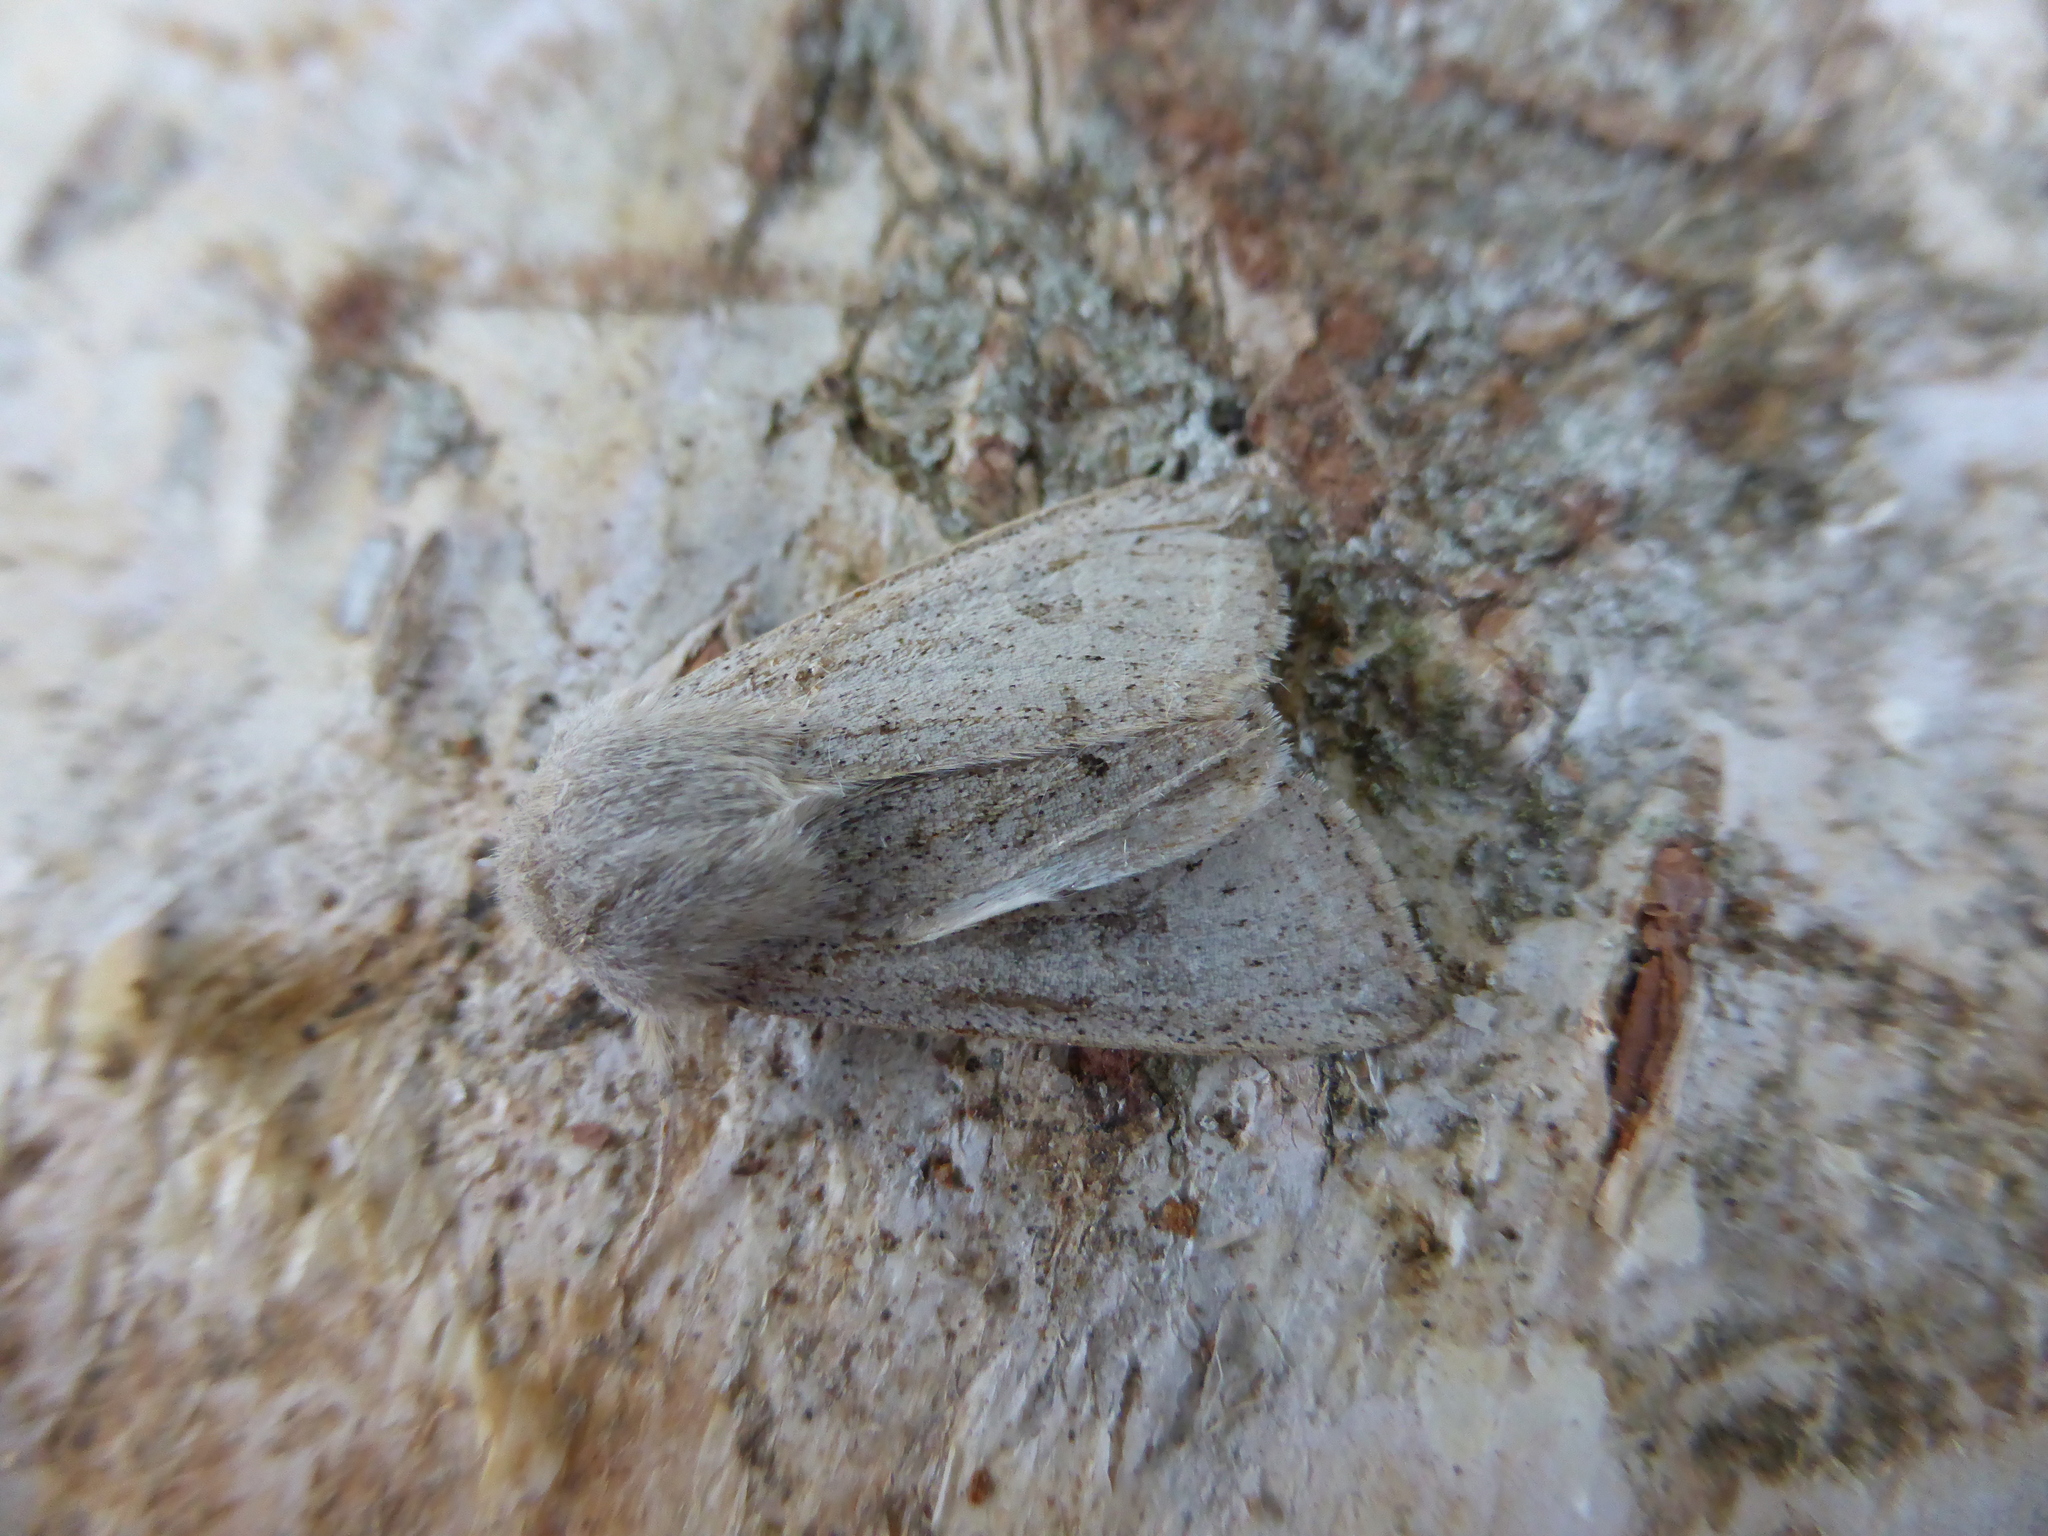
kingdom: Animalia
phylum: Arthropoda
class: Insecta
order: Lepidoptera
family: Noctuidae
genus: Orthosia
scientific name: Orthosia gracilis
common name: Powdered quaker
